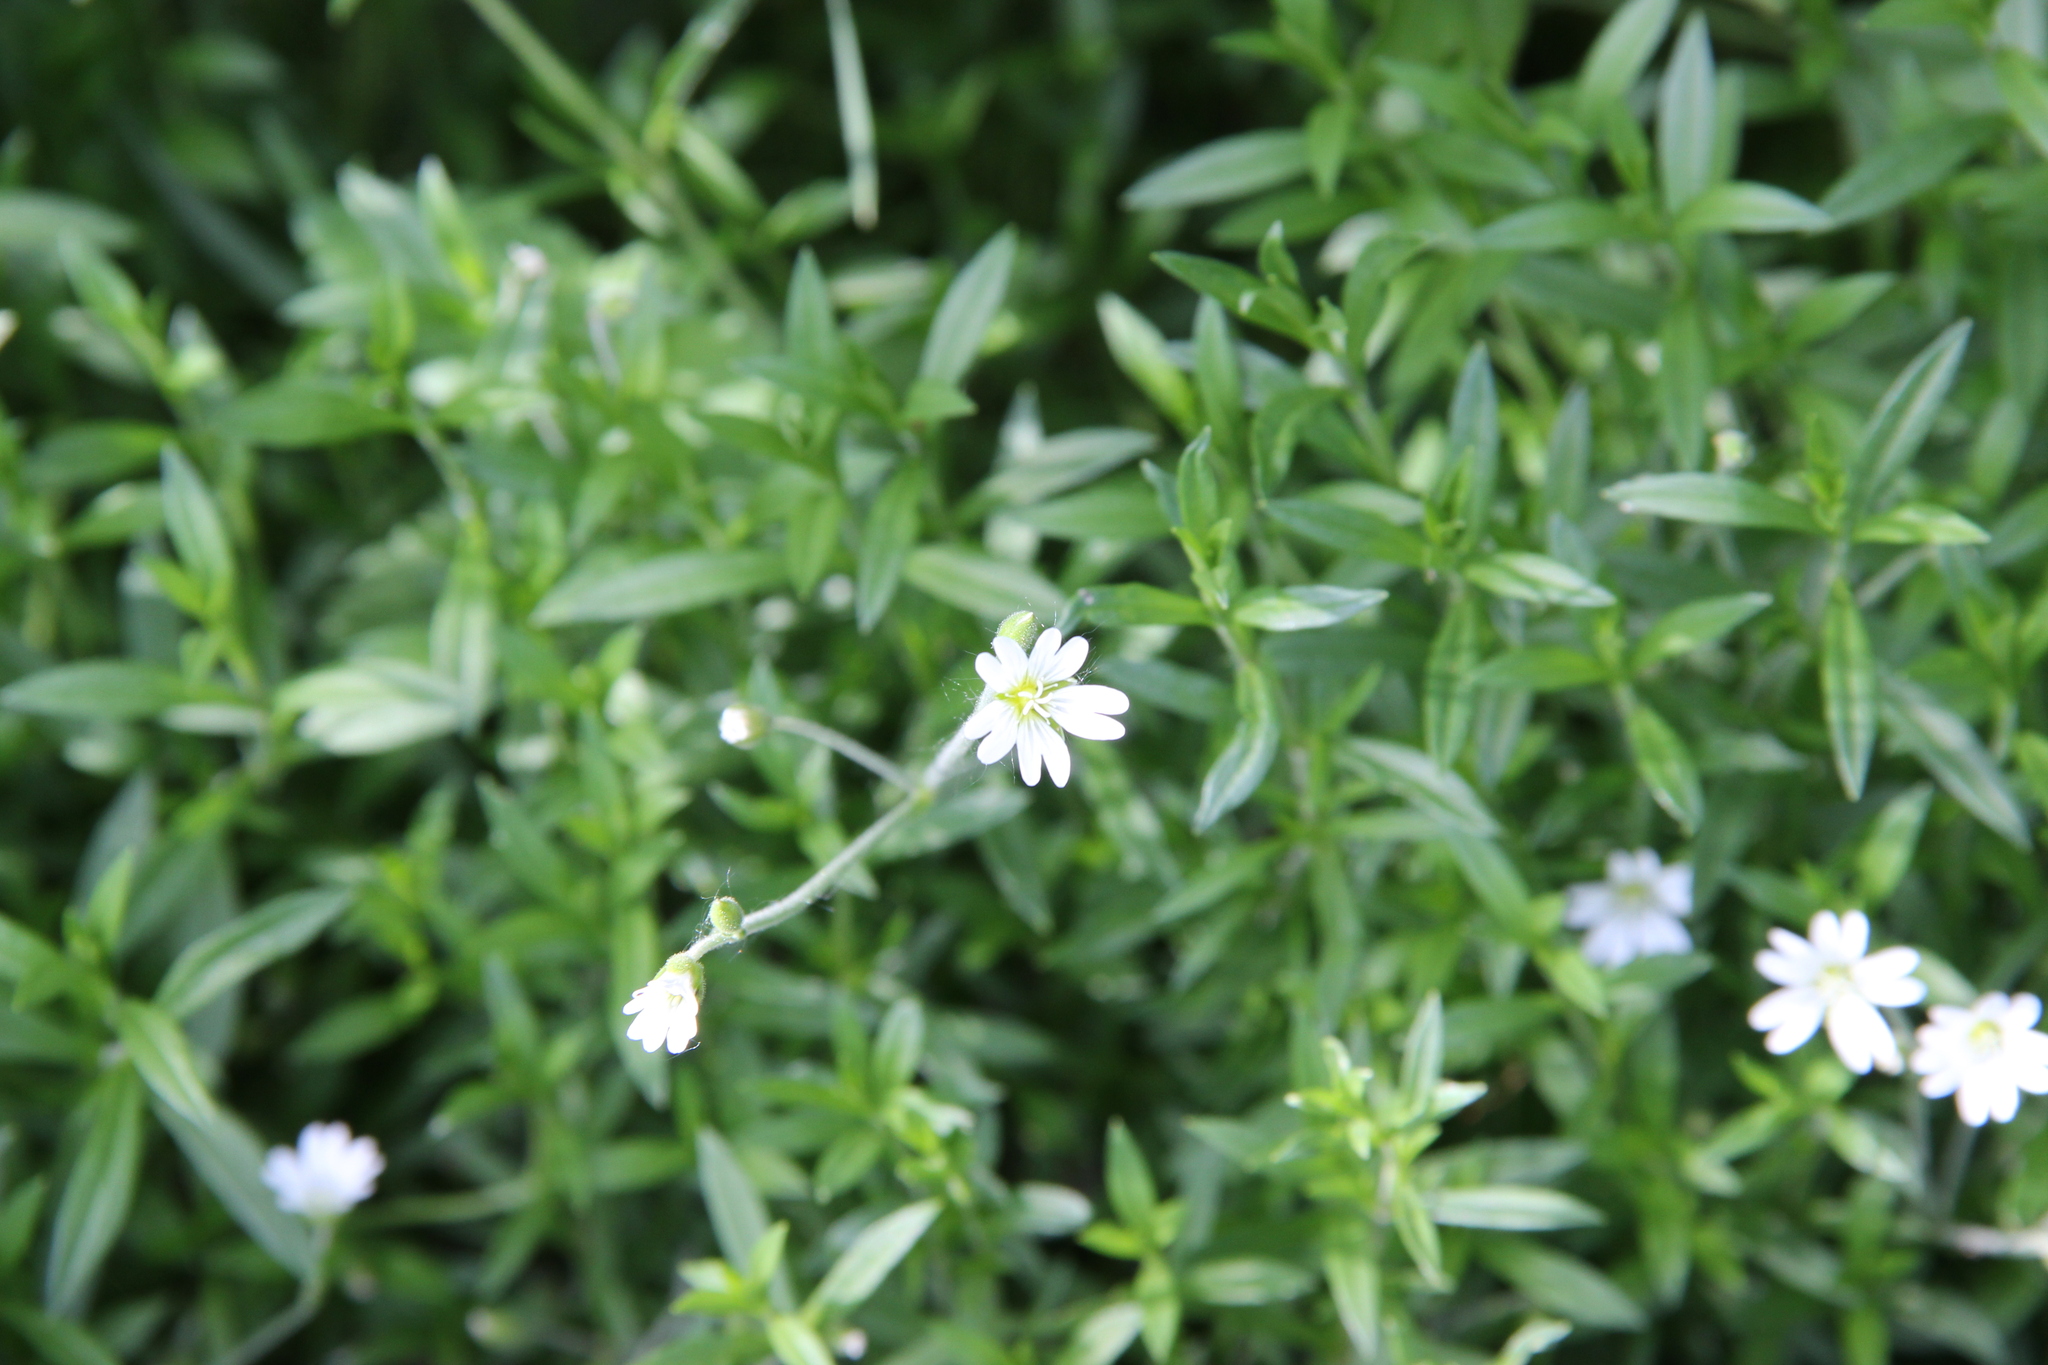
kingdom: Plantae
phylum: Tracheophyta
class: Magnoliopsida
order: Caryophyllales
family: Caryophyllaceae
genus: Cerastium
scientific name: Cerastium arvense
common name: Field mouse-ear
